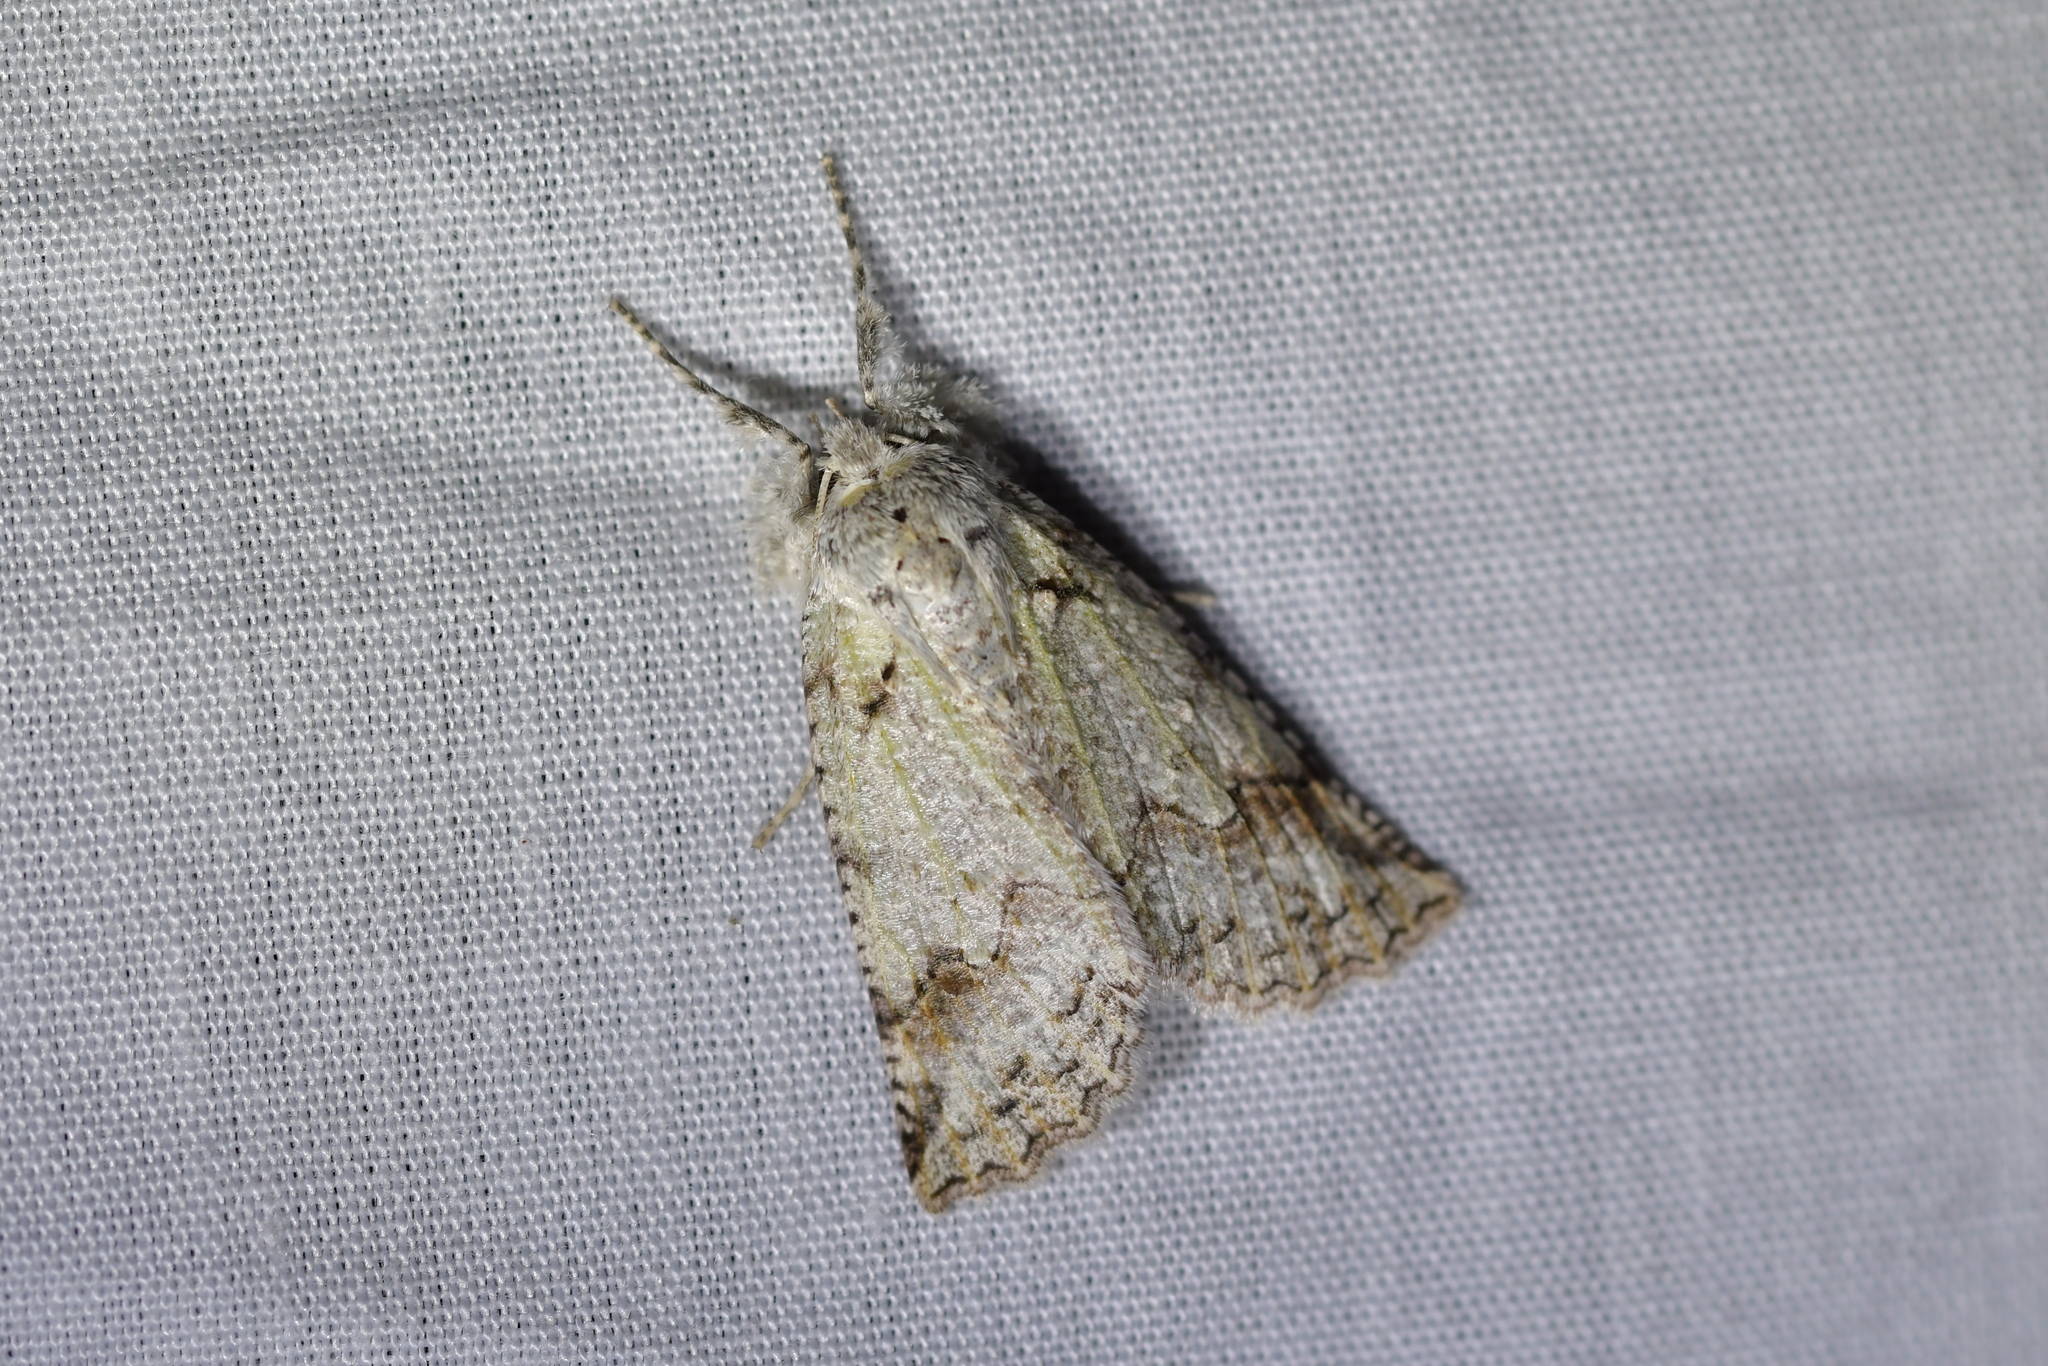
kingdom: Animalia
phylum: Arthropoda
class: Insecta
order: Lepidoptera
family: Geometridae
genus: Declana
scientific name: Declana floccosa
